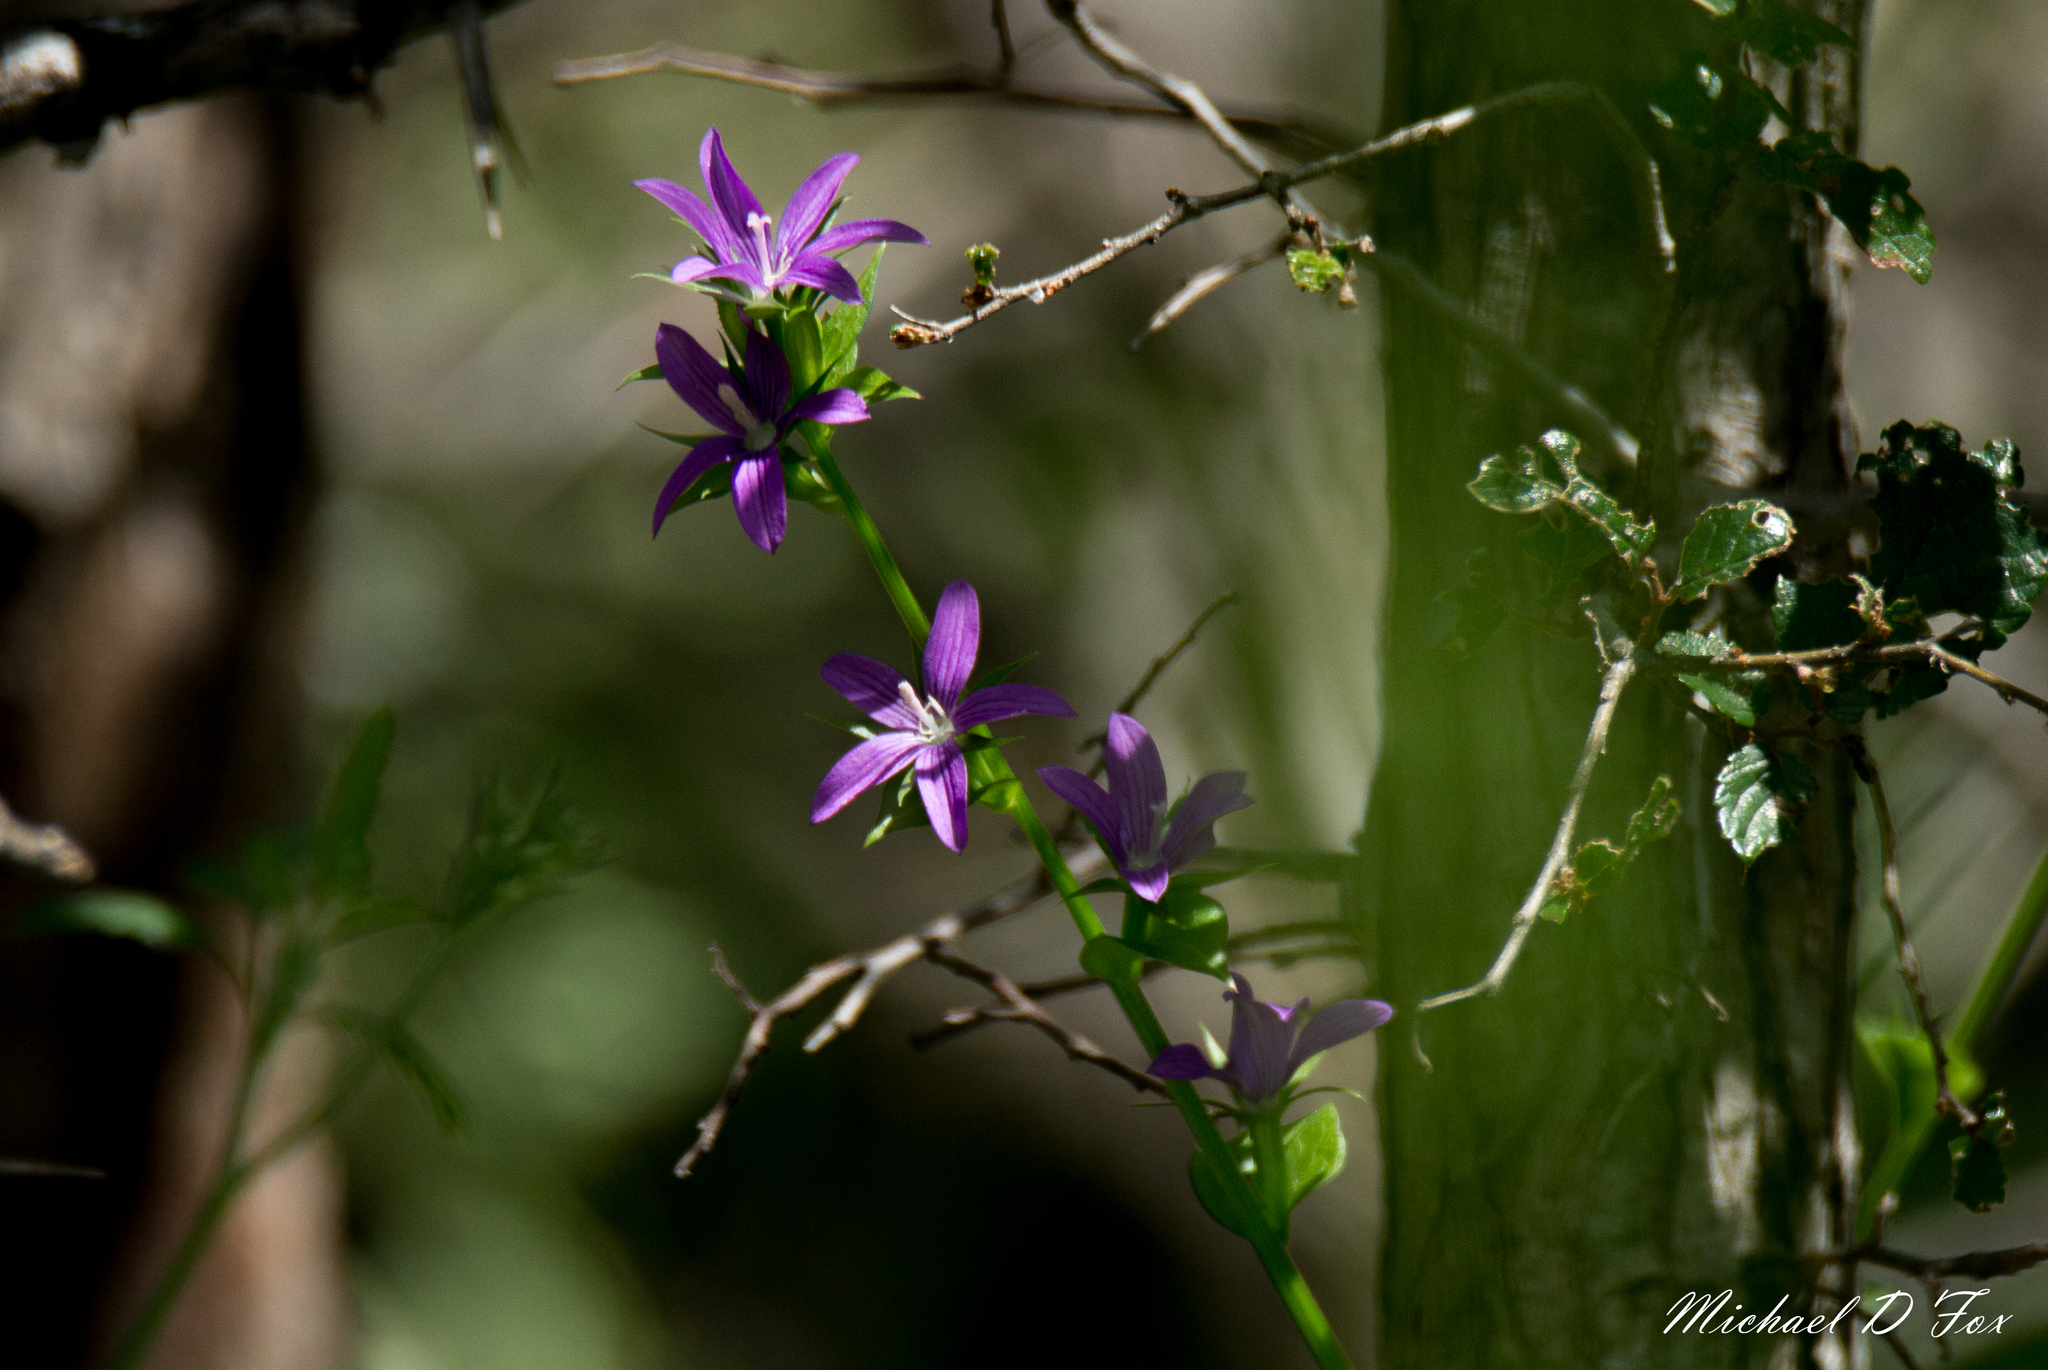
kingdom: Plantae
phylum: Tracheophyta
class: Magnoliopsida
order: Asterales
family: Campanulaceae
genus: Triodanis
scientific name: Triodanis
